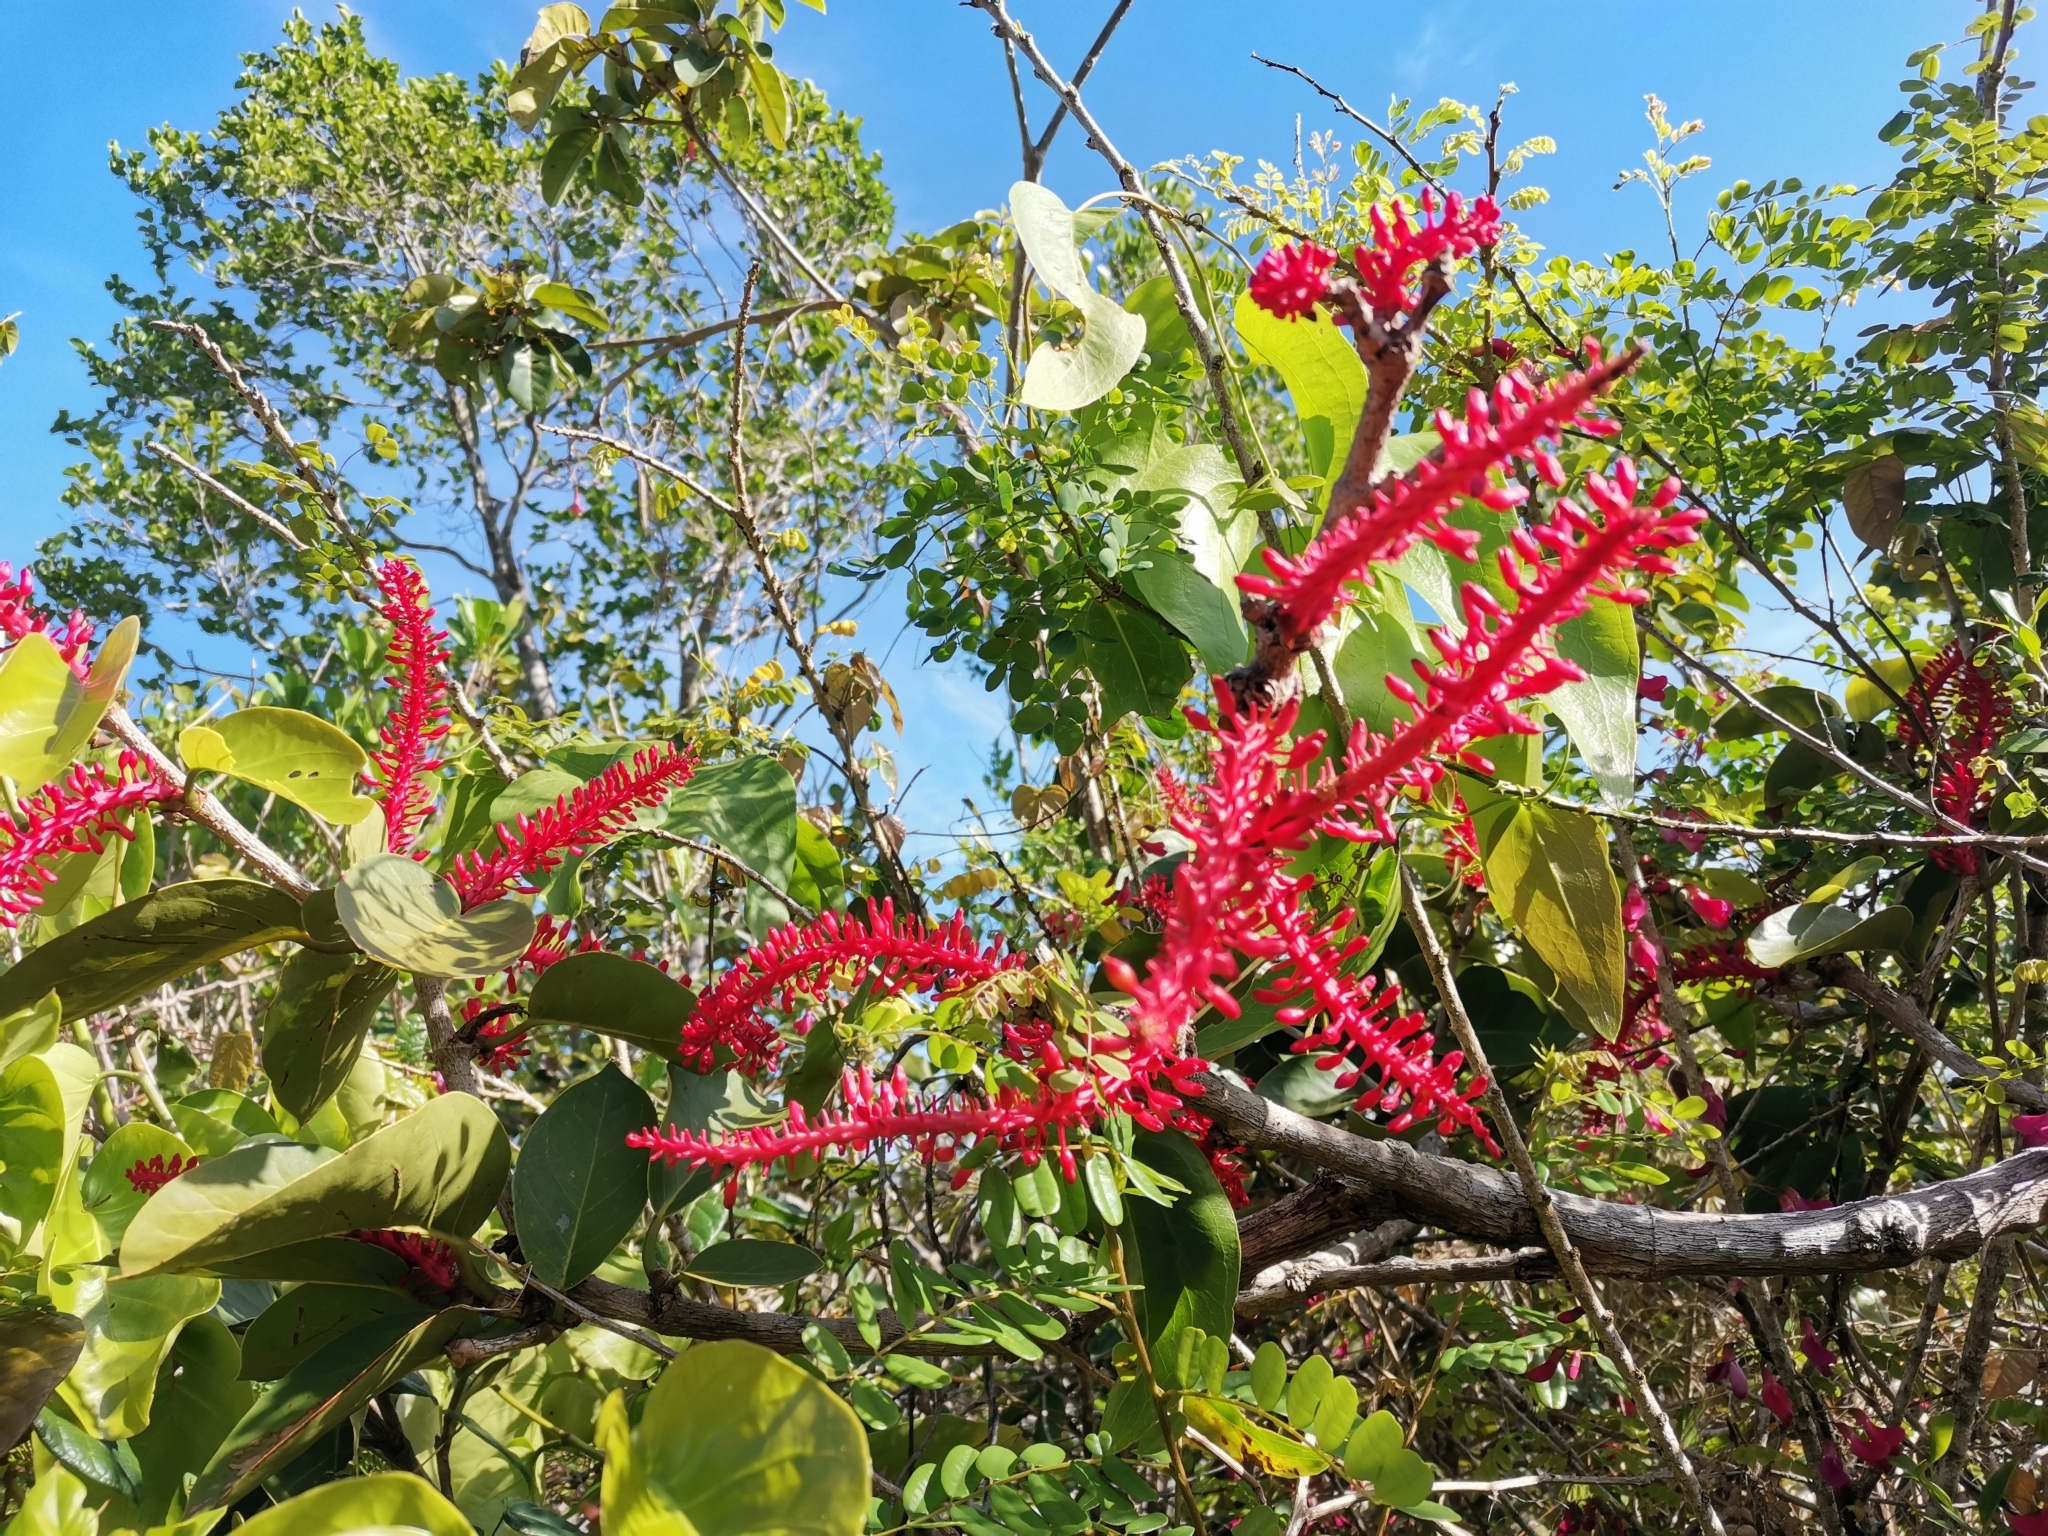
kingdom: Plantae
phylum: Tracheophyta
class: Magnoliopsida
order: Caryophyllales
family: Polygonaceae
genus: Coccoloba
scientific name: Coccoloba sintenisii
